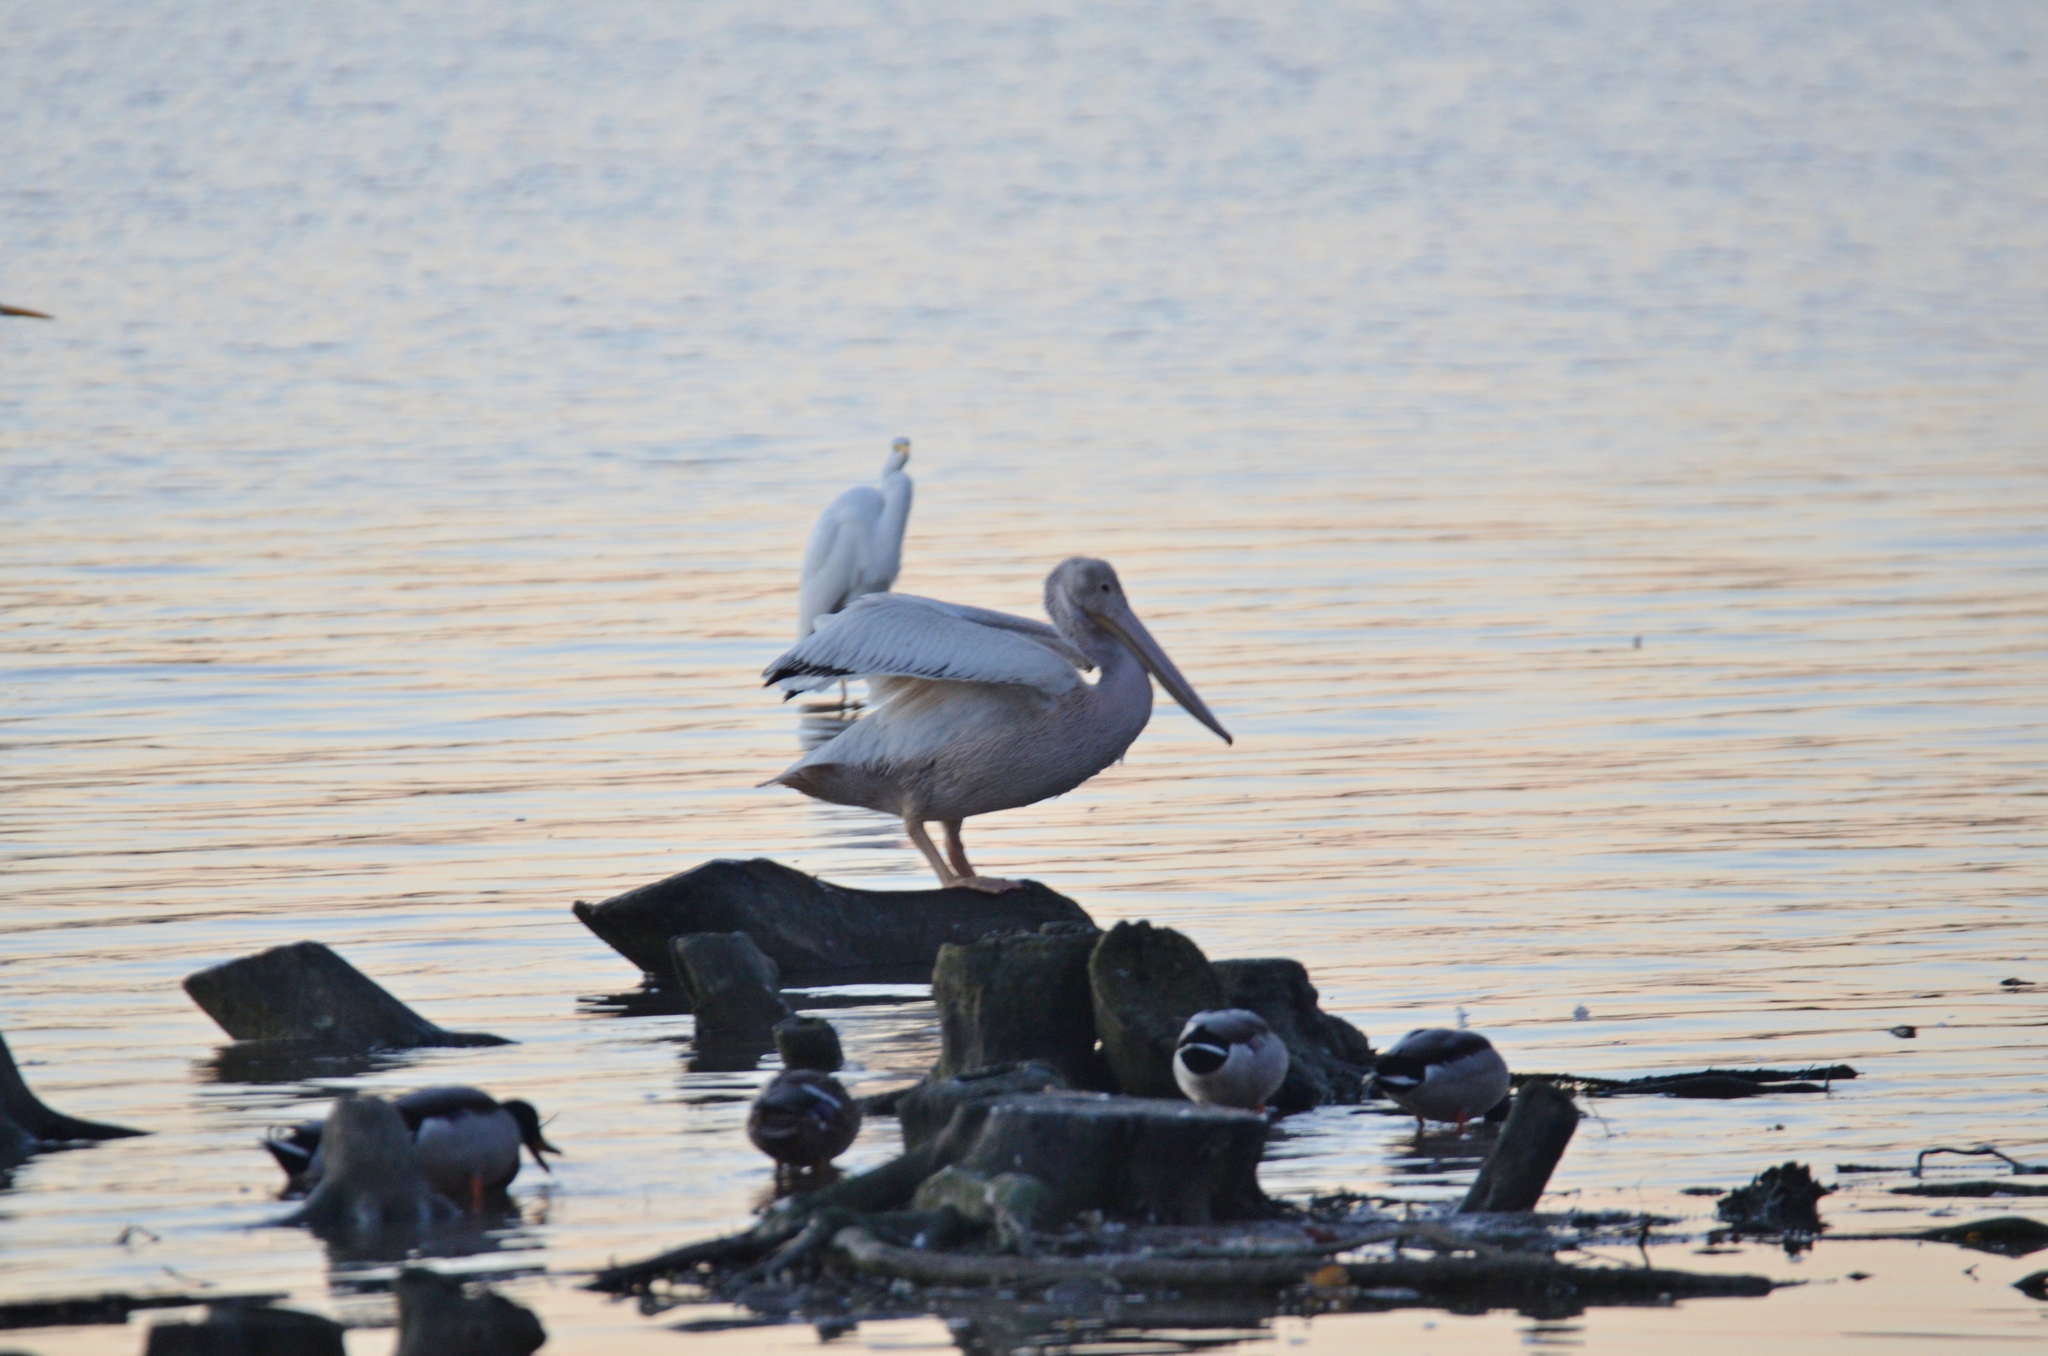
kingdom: Animalia
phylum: Chordata
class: Aves
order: Pelecaniformes
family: Pelecanidae
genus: Pelecanus
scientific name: Pelecanus erythrorhynchos
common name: American white pelican
